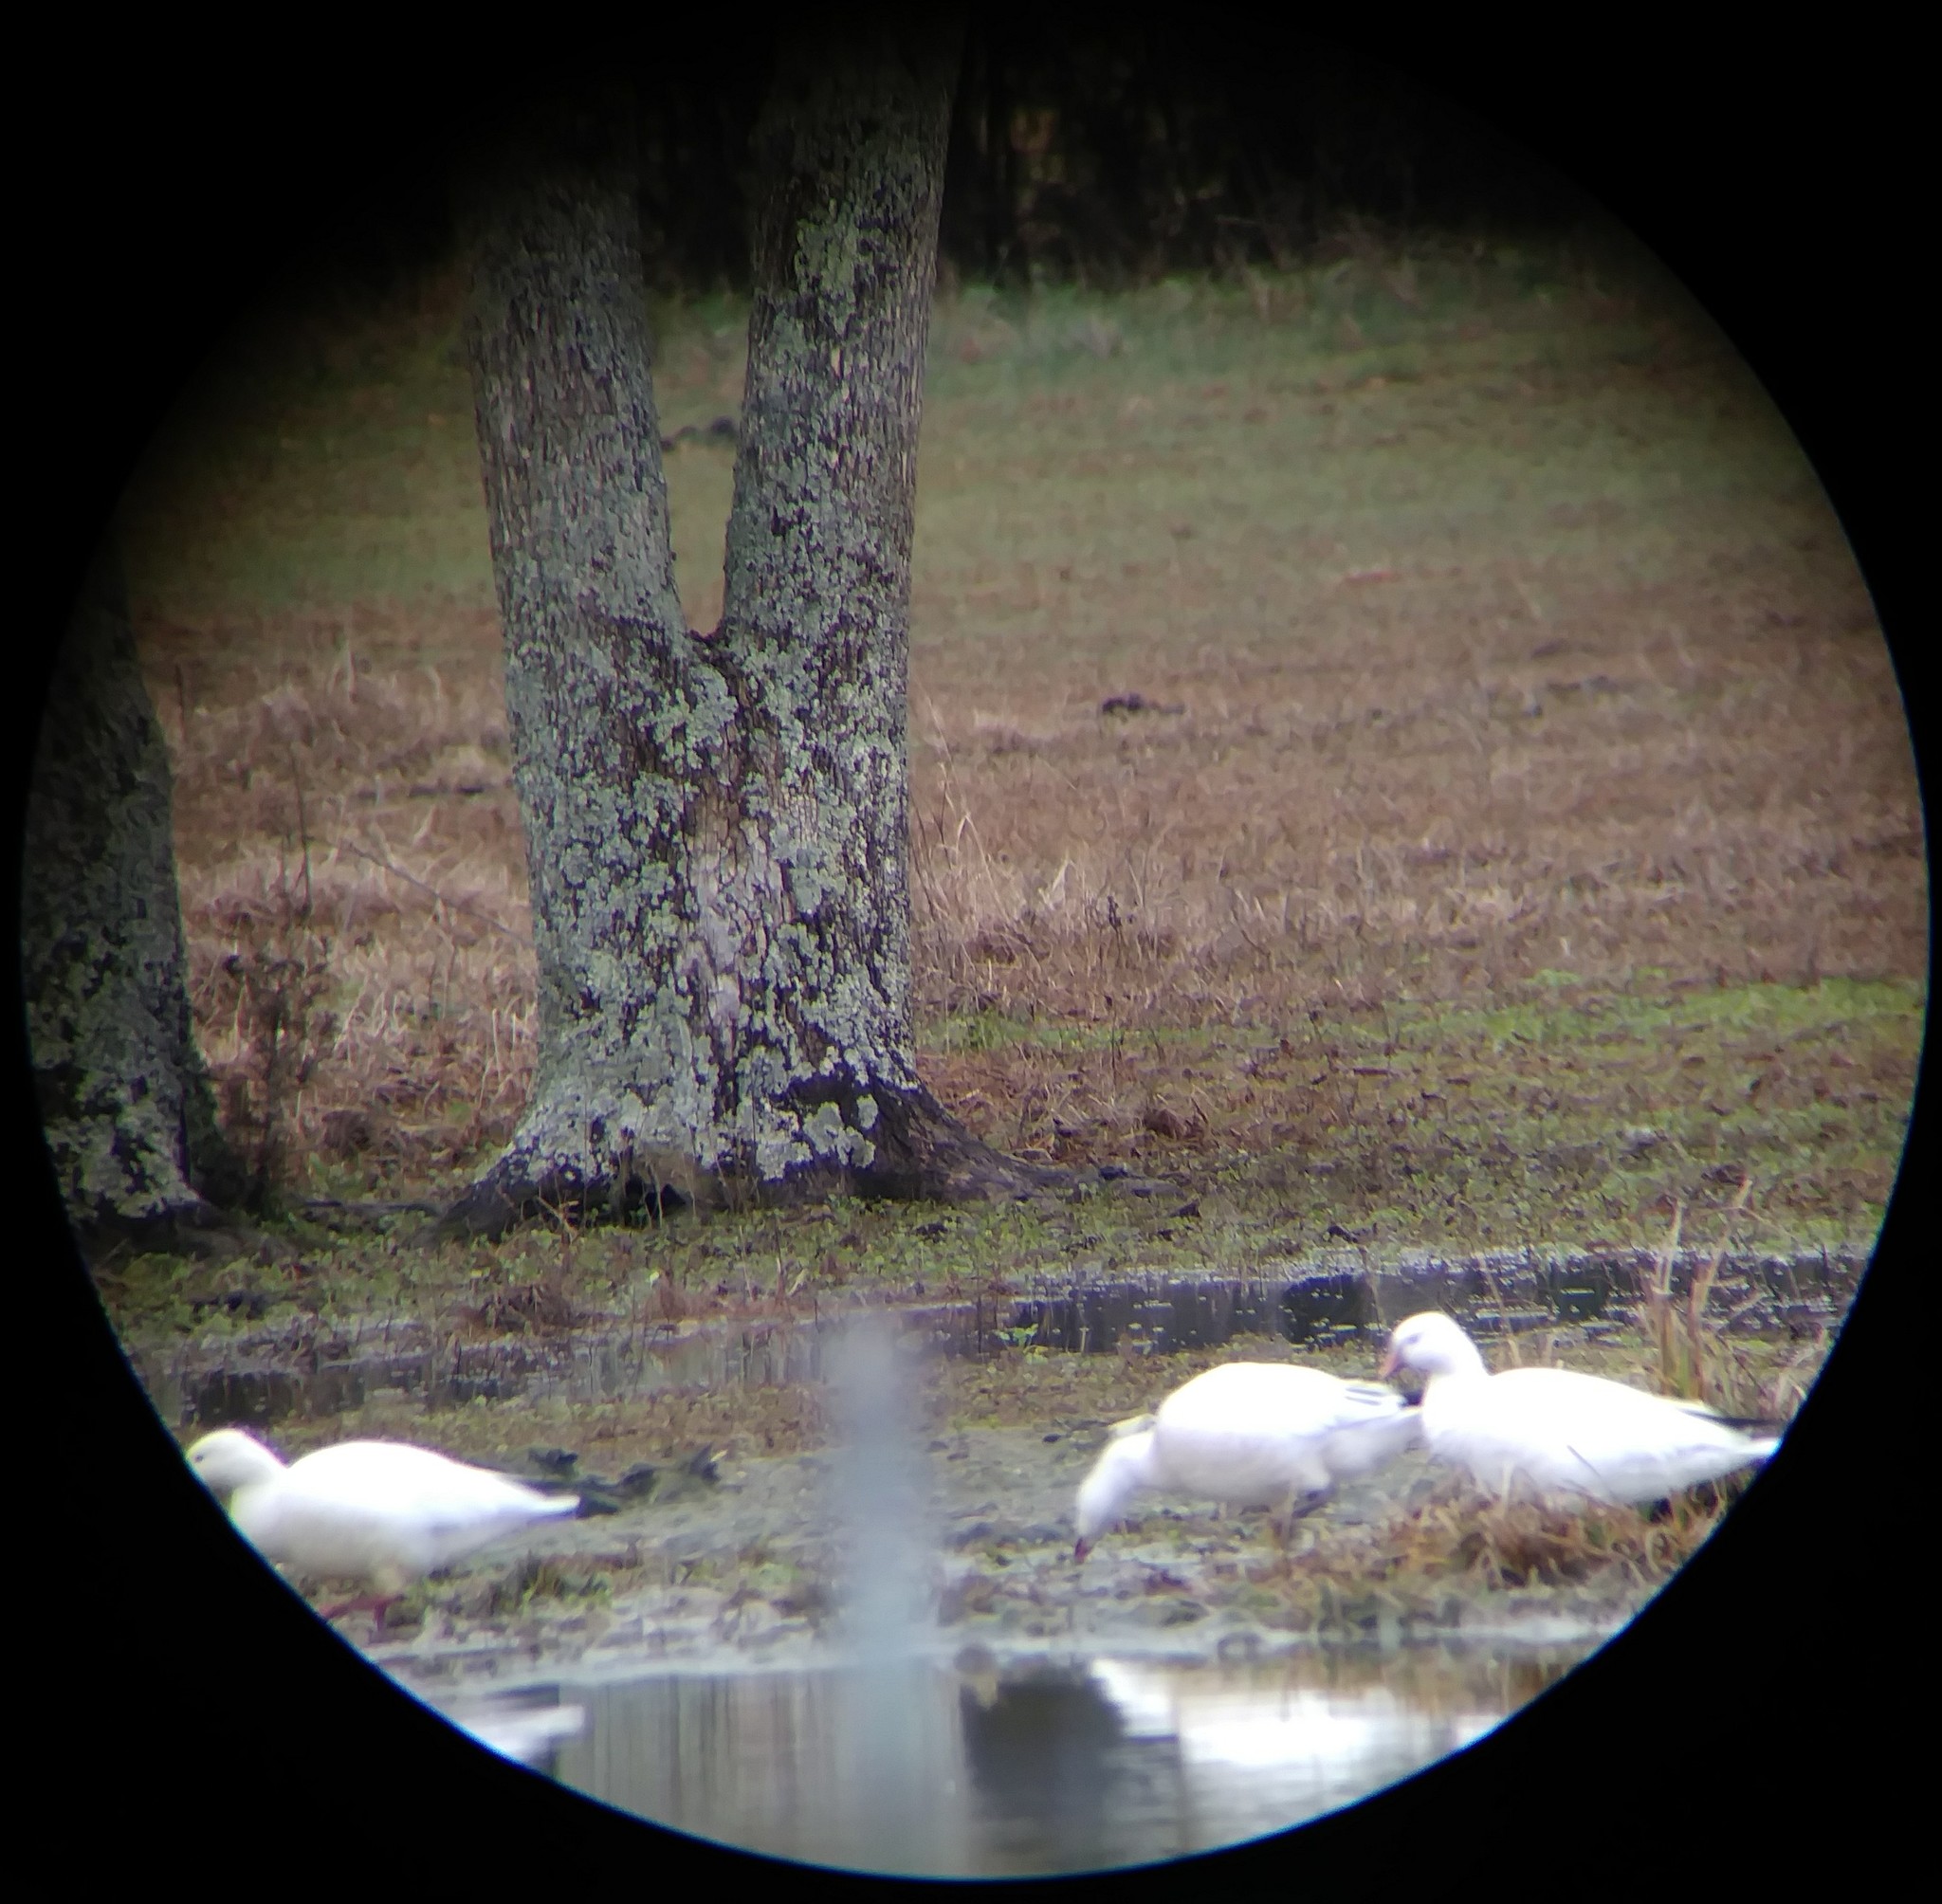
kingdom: Animalia
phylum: Chordata
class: Aves
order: Anseriformes
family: Anatidae
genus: Anser
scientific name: Anser rossii
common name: Ross's goose
